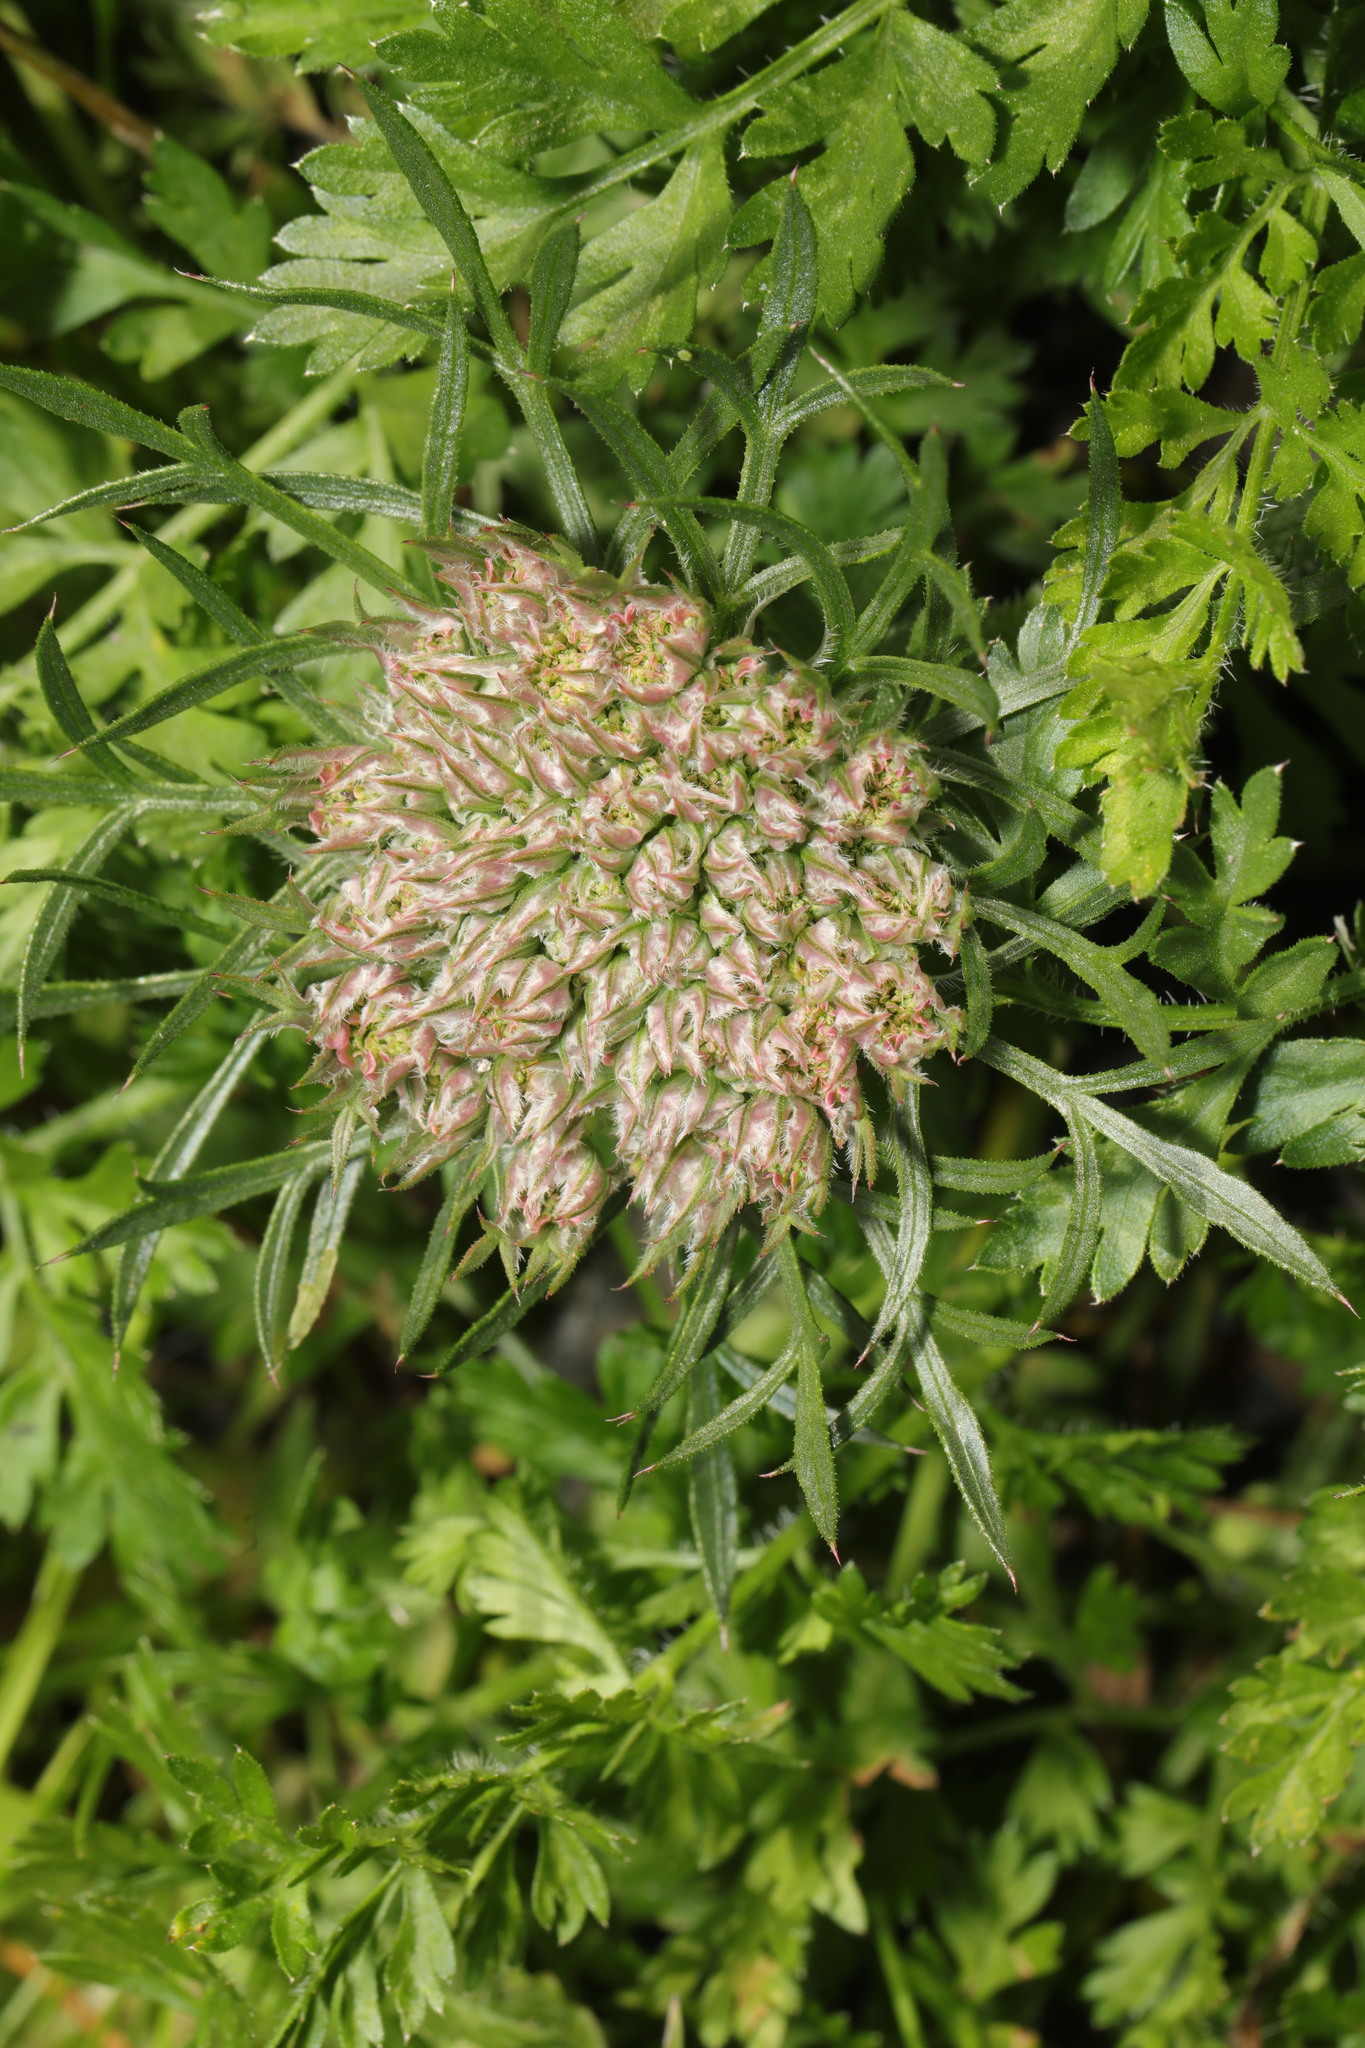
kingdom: Plantae
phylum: Tracheophyta
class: Magnoliopsida
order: Apiales
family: Apiaceae
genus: Daucus
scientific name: Daucus carota
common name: Wild carrot
